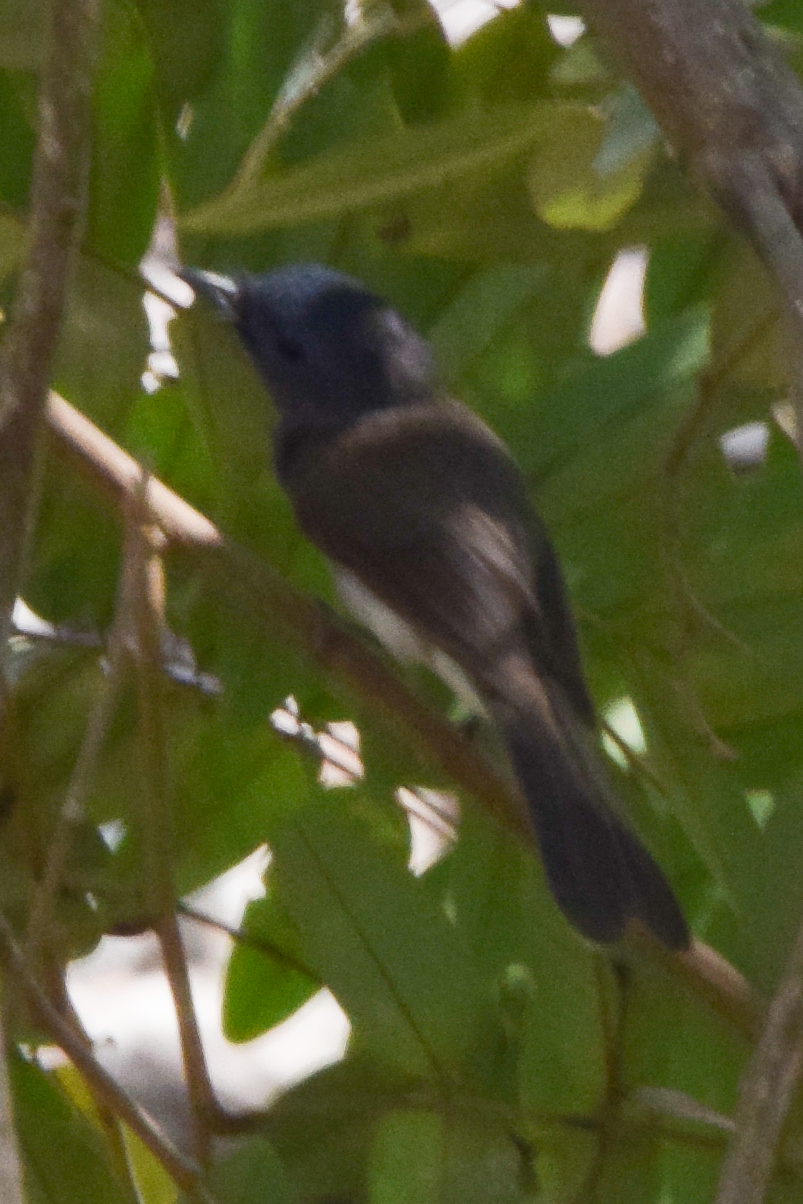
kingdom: Animalia
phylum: Chordata
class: Aves
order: Passeriformes
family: Monarchidae
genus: Hypothymis
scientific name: Hypothymis azurea
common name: Black-naped monarch
